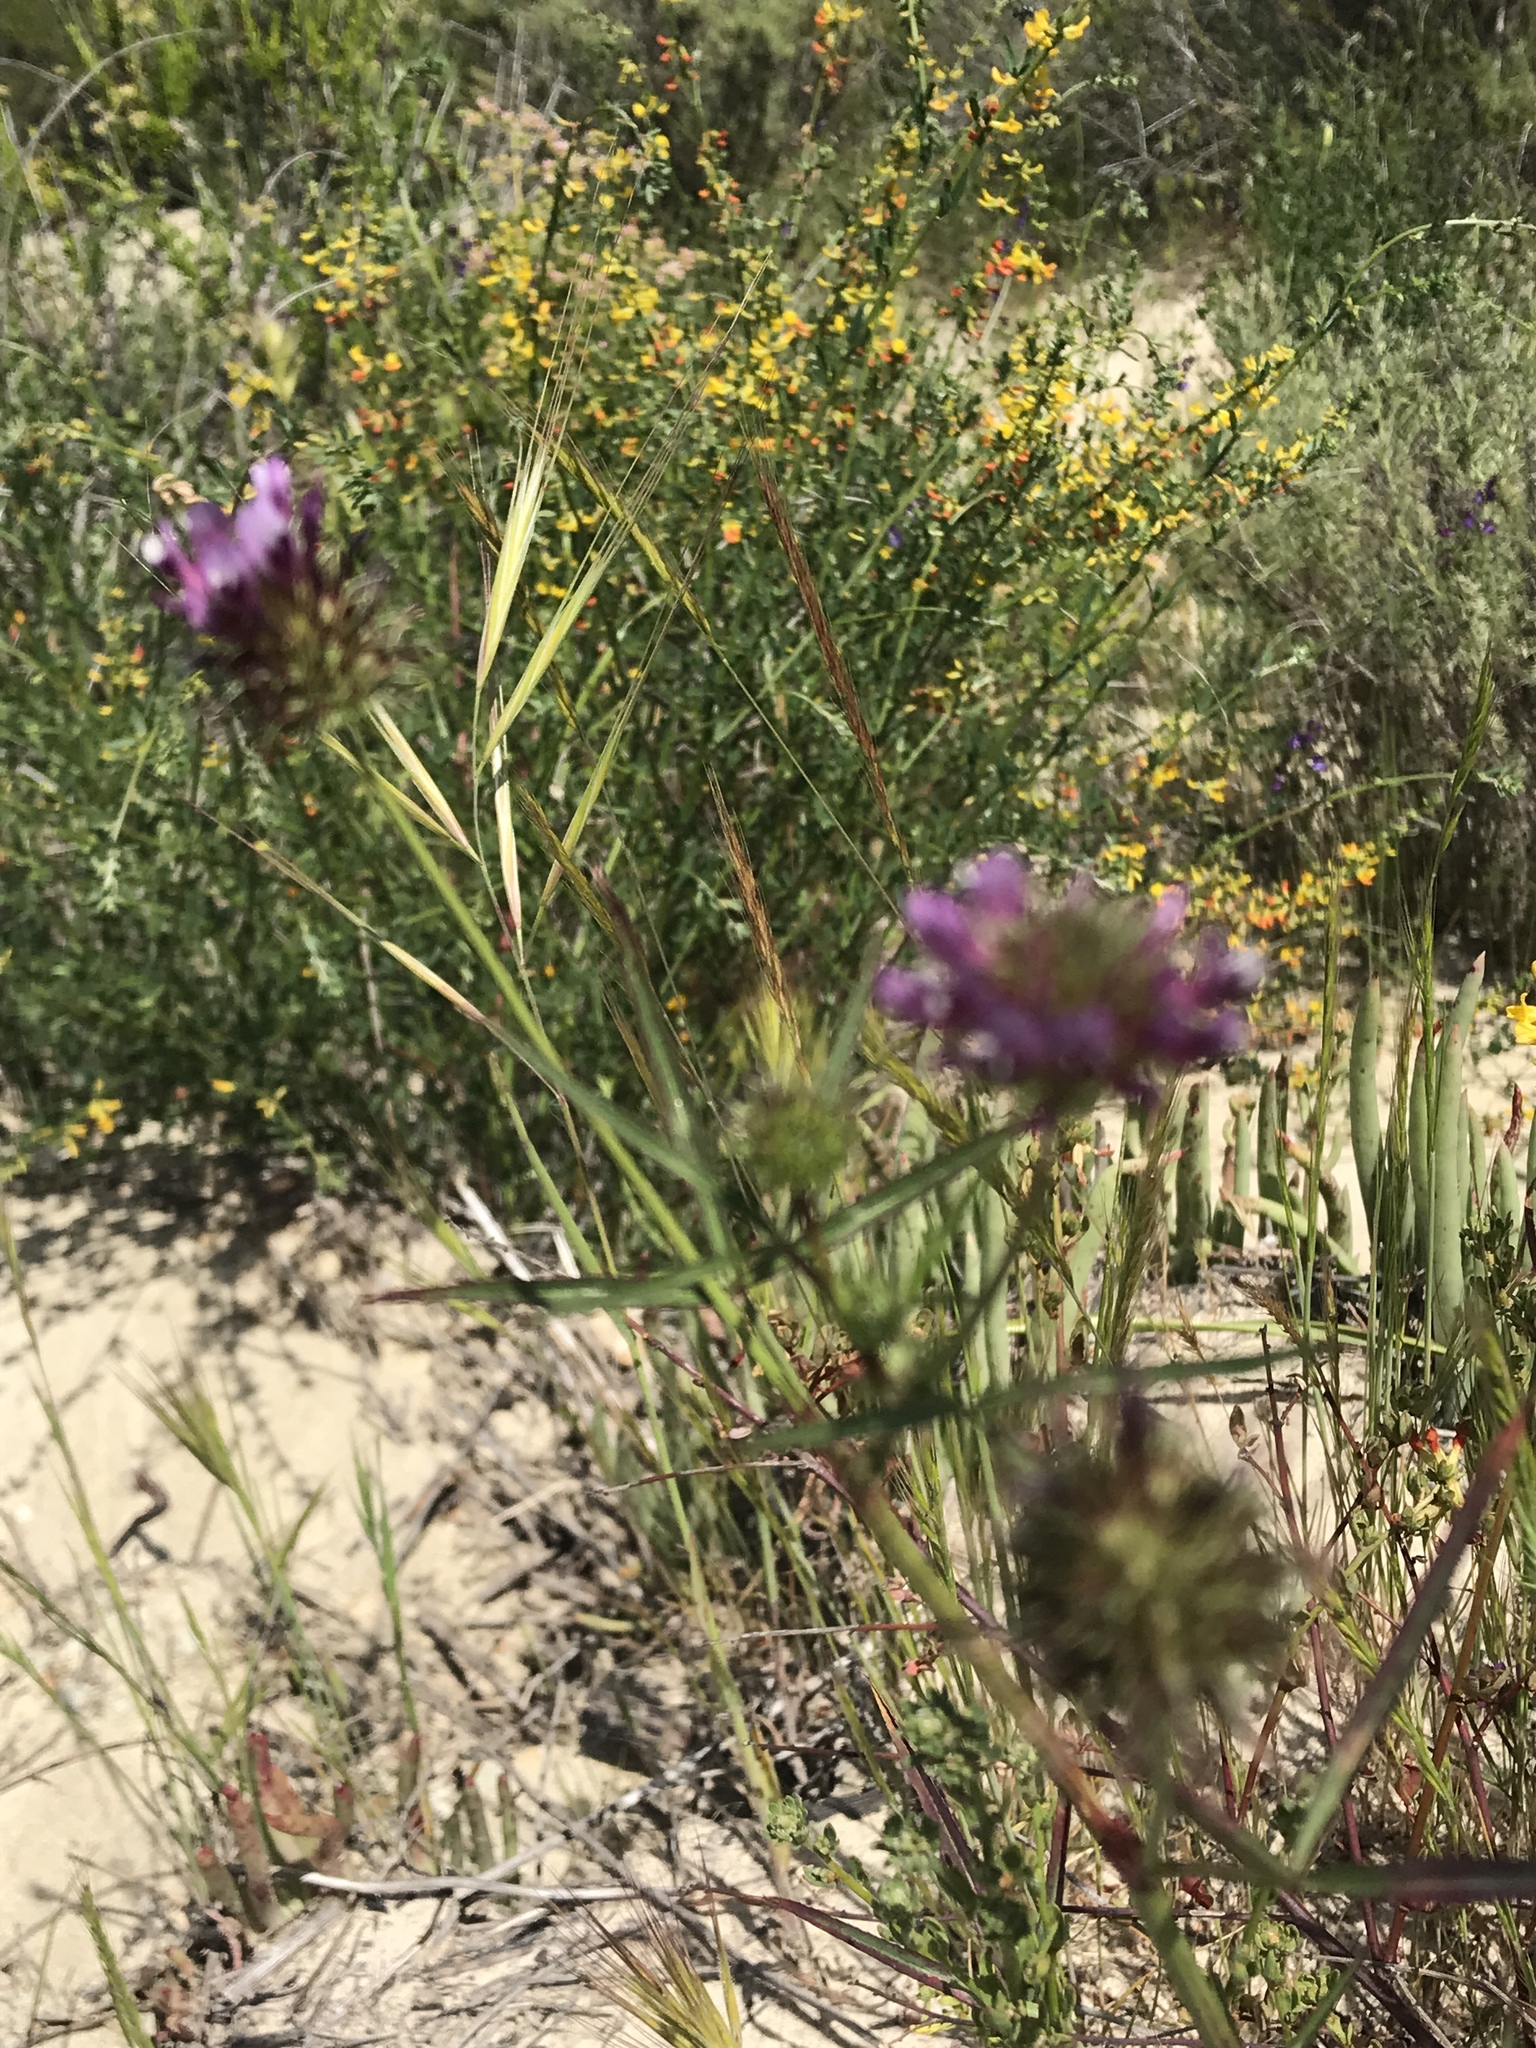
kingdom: Plantae
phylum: Tracheophyta
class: Magnoliopsida
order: Fabales
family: Fabaceae
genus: Trifolium
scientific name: Trifolium willdenovii
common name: Tomcat clover
